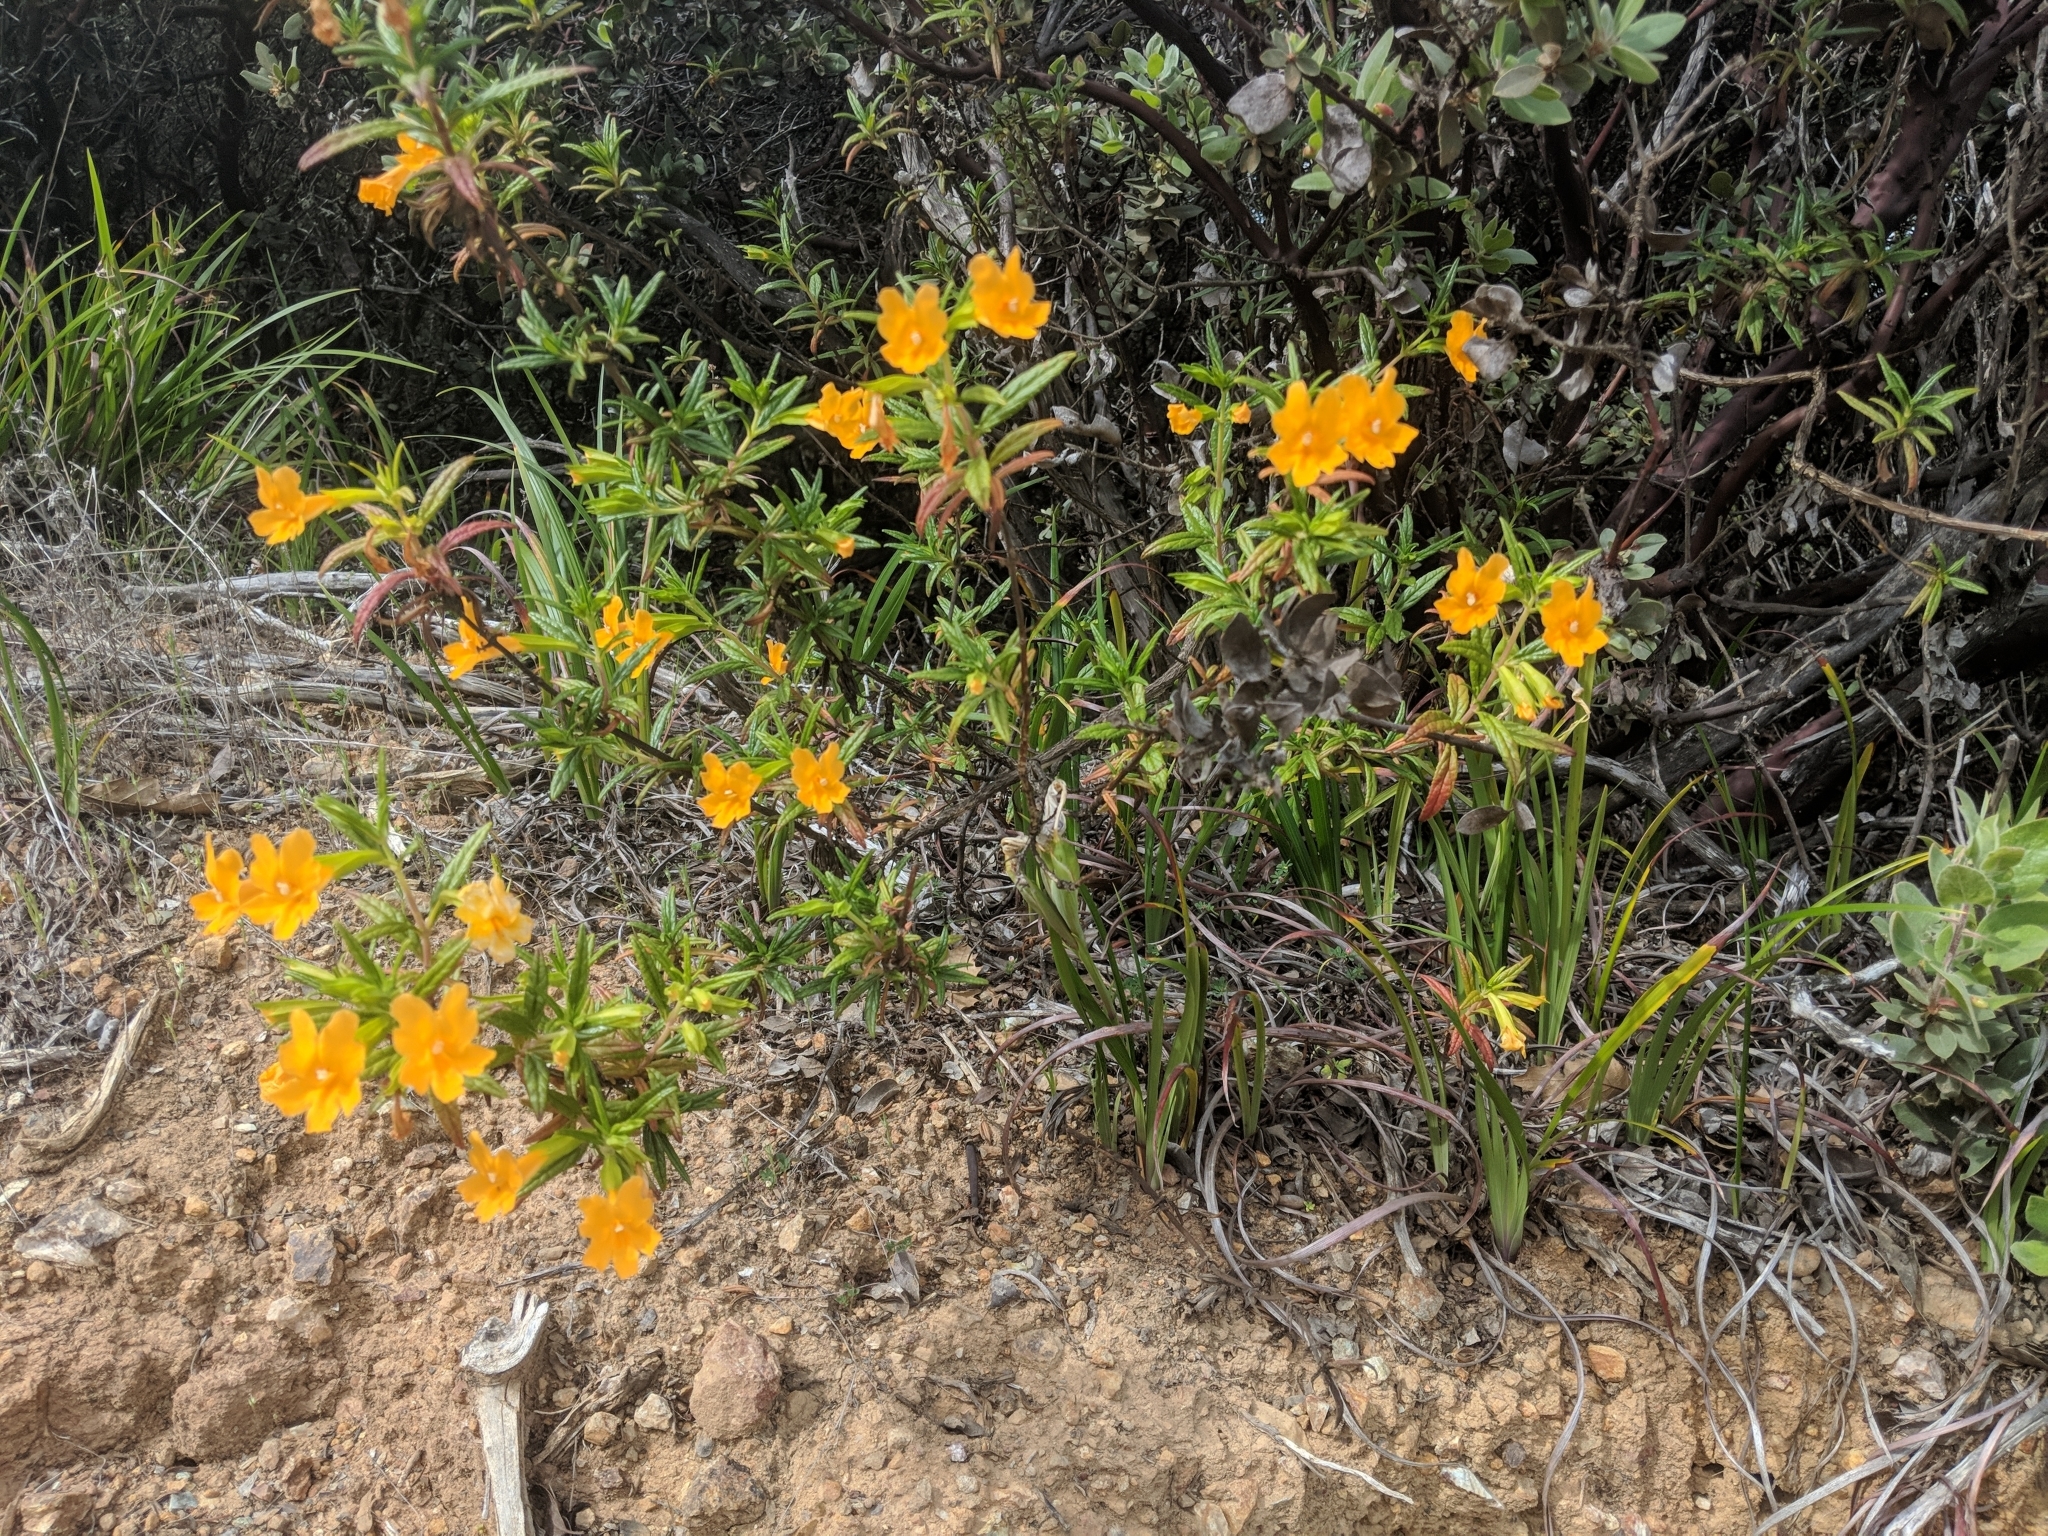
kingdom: Plantae
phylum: Tracheophyta
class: Magnoliopsida
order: Lamiales
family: Phrymaceae
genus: Diplacus
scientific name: Diplacus aurantiacus
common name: Bush monkey-flower
